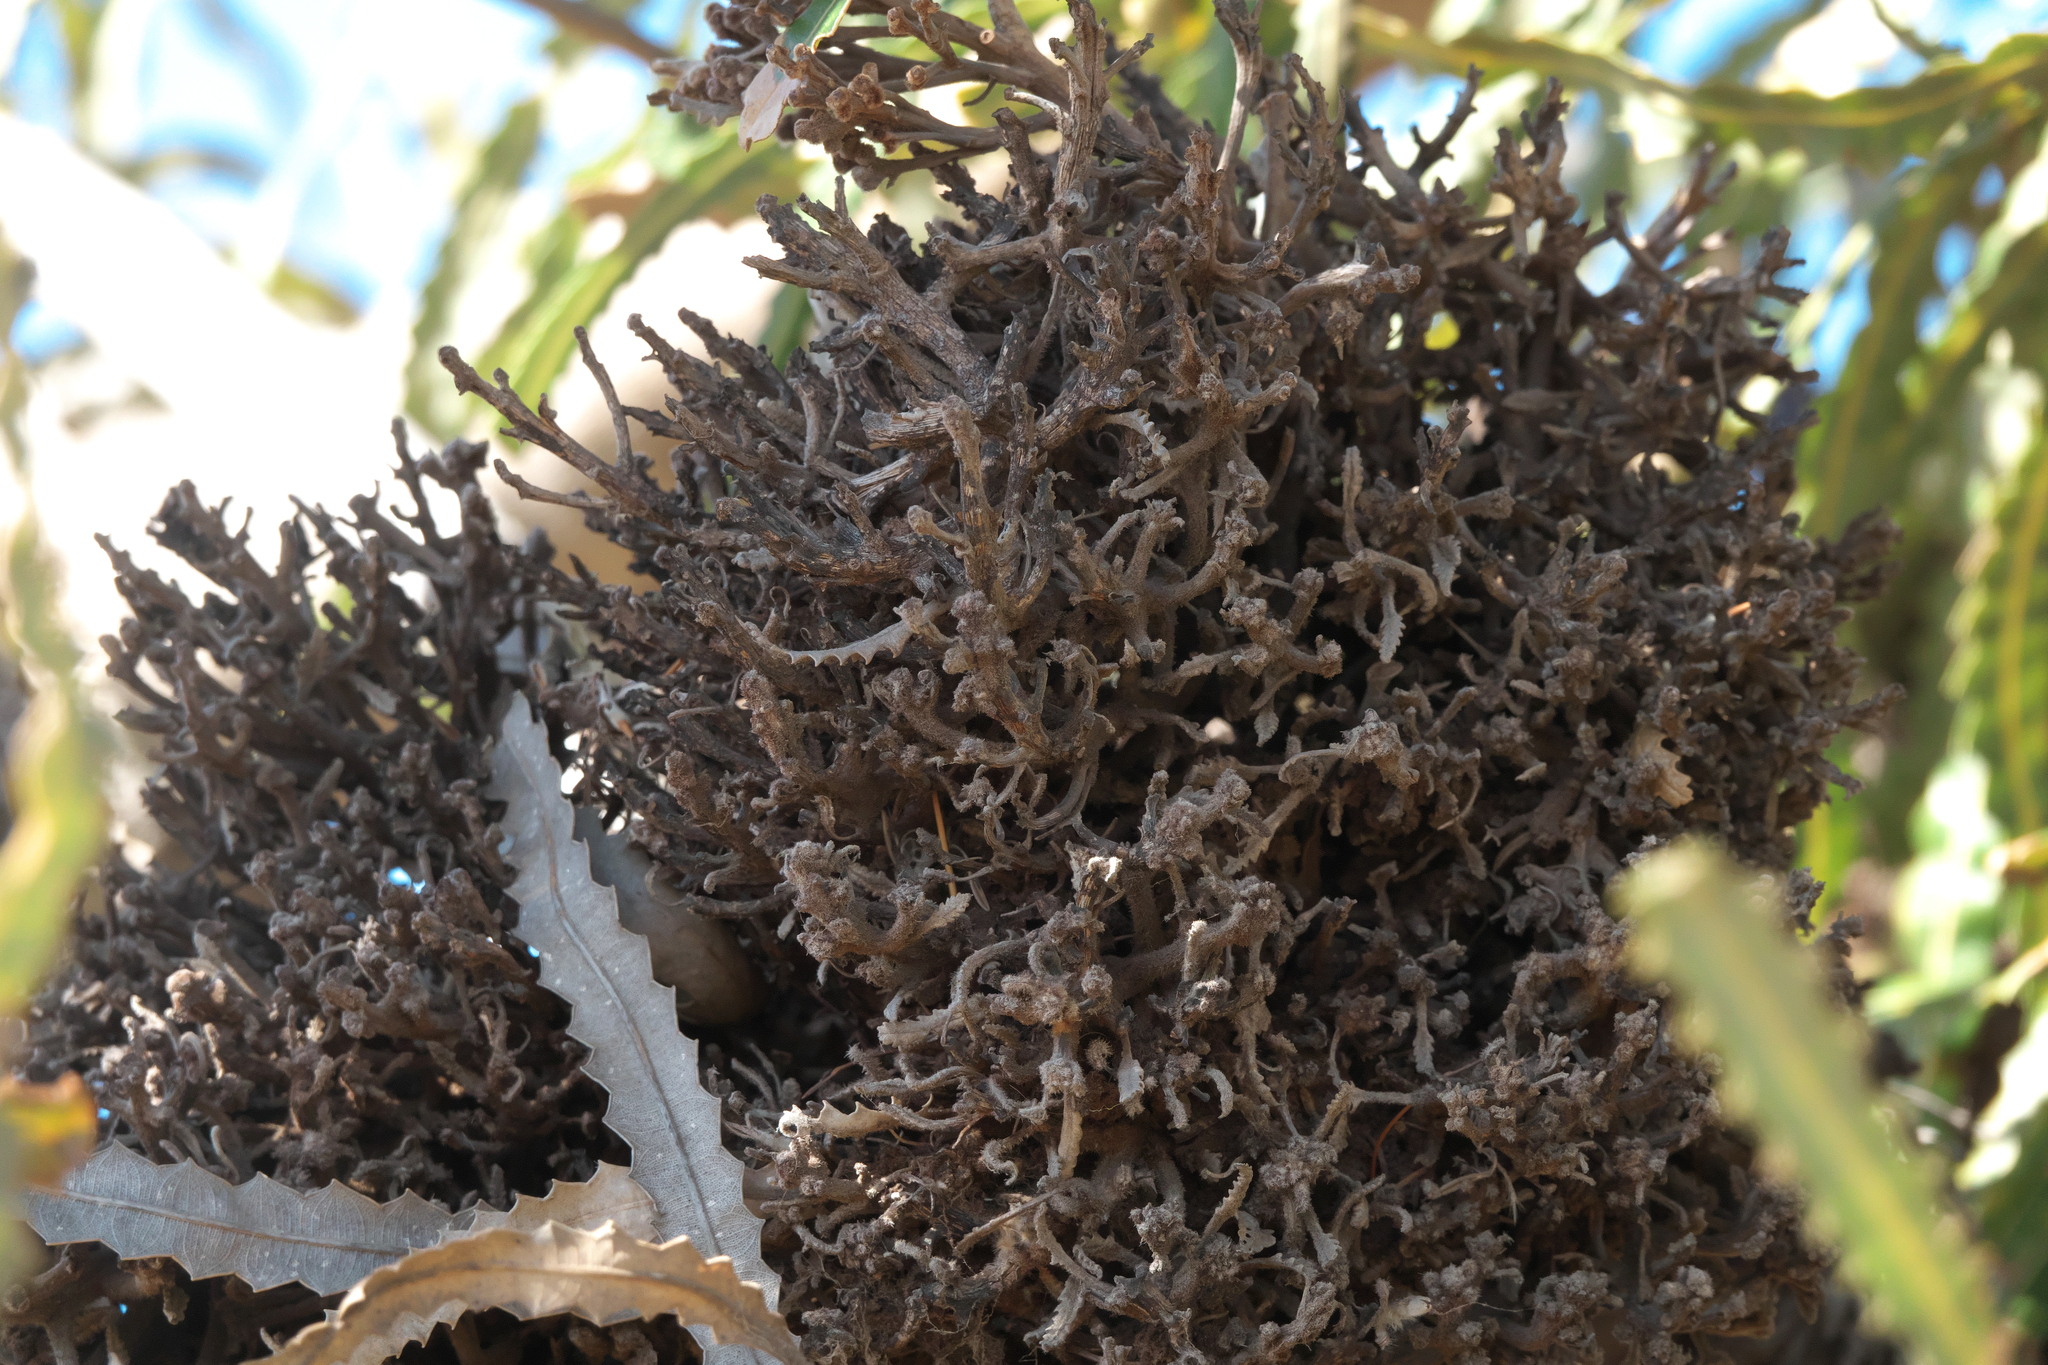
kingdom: Plantae
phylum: Tracheophyta
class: Magnoliopsida
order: Proteales
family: Proteaceae
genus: Banksia
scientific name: Banksia prionotes
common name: Acorn banksia
